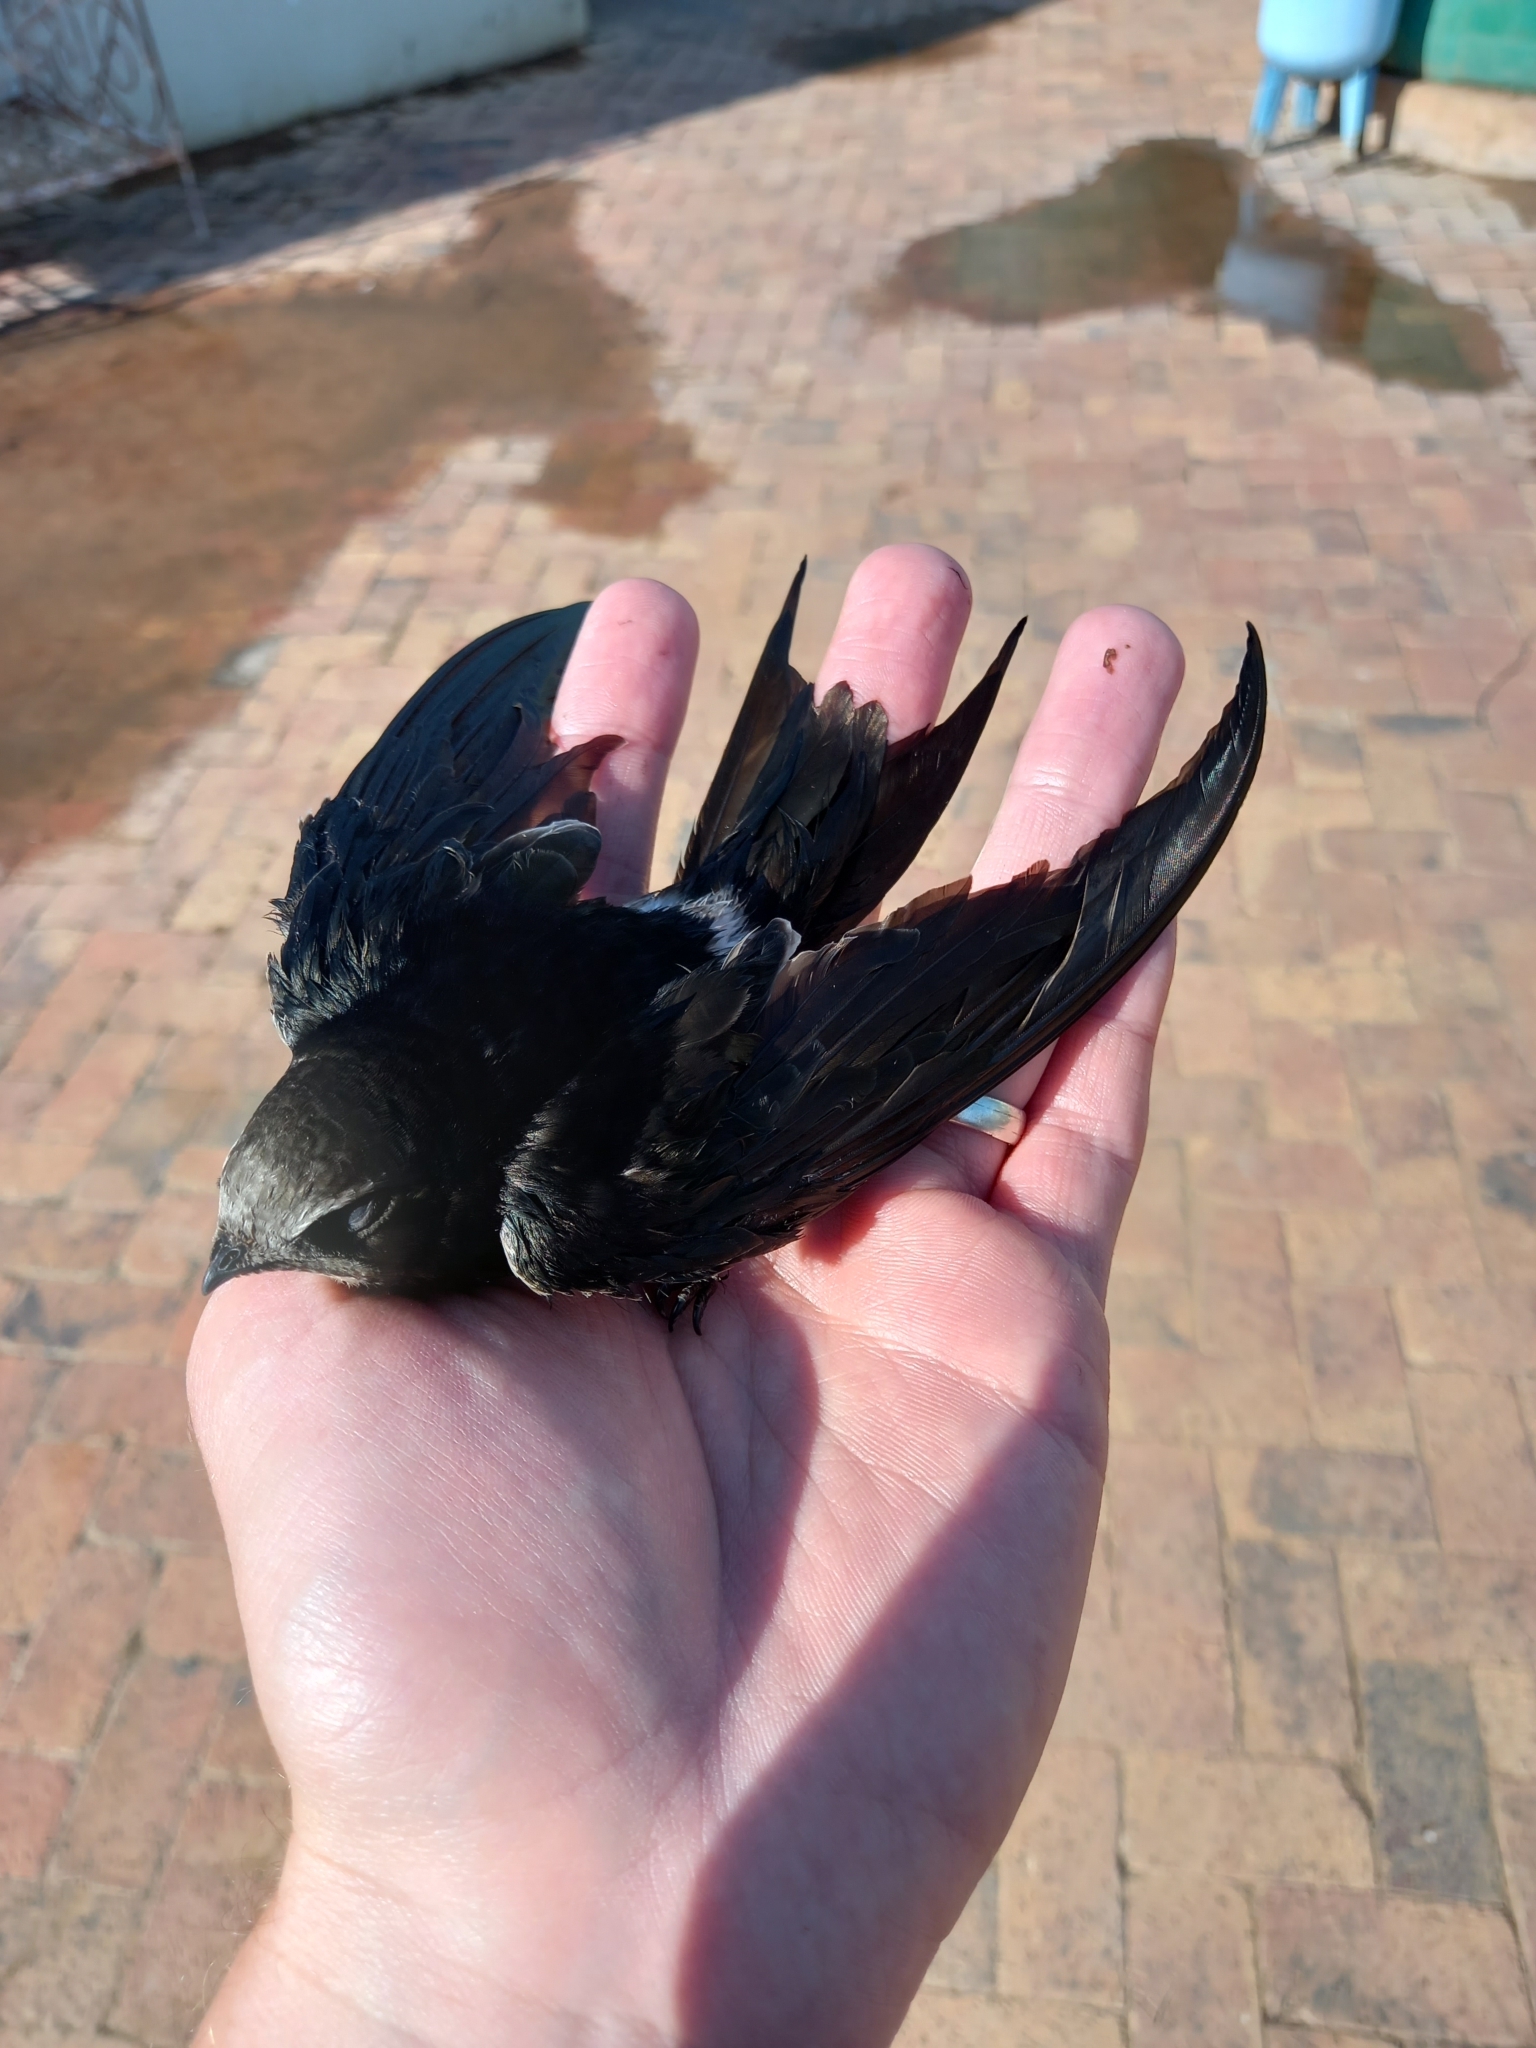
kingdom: Animalia
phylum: Chordata
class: Aves
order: Apodiformes
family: Apodidae
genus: Apus
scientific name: Apus caffer
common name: White-rumped swift
